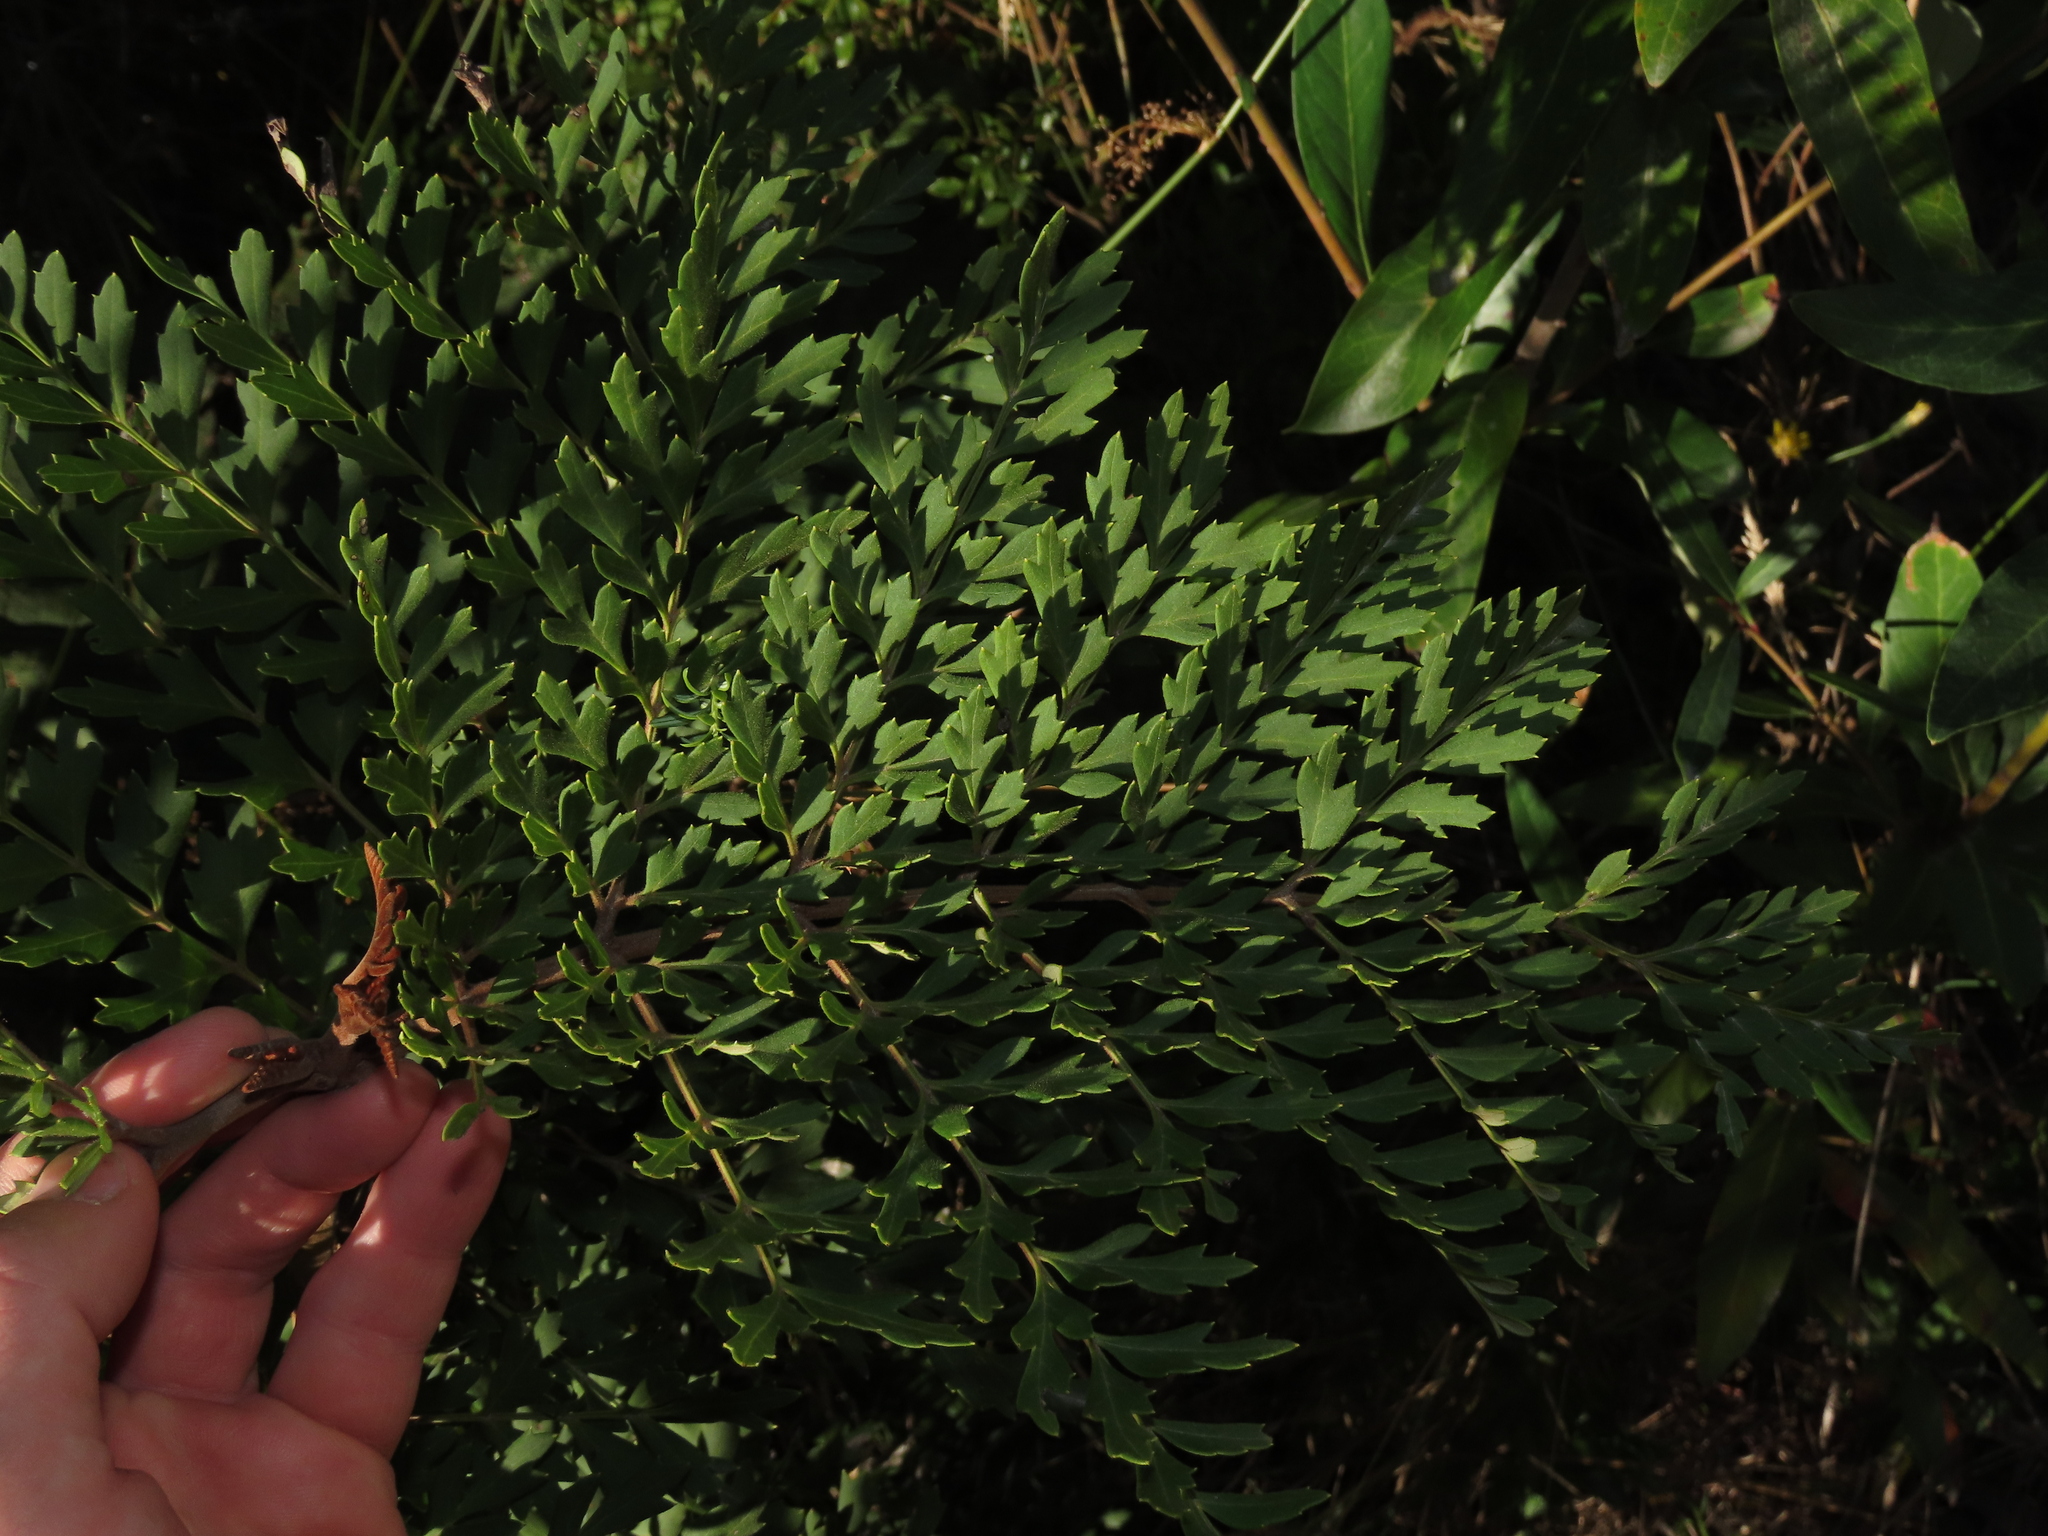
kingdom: Plantae
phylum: Tracheophyta
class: Magnoliopsida
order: Proteales
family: Proteaceae
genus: Lomatia
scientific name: Lomatia ferruginea
